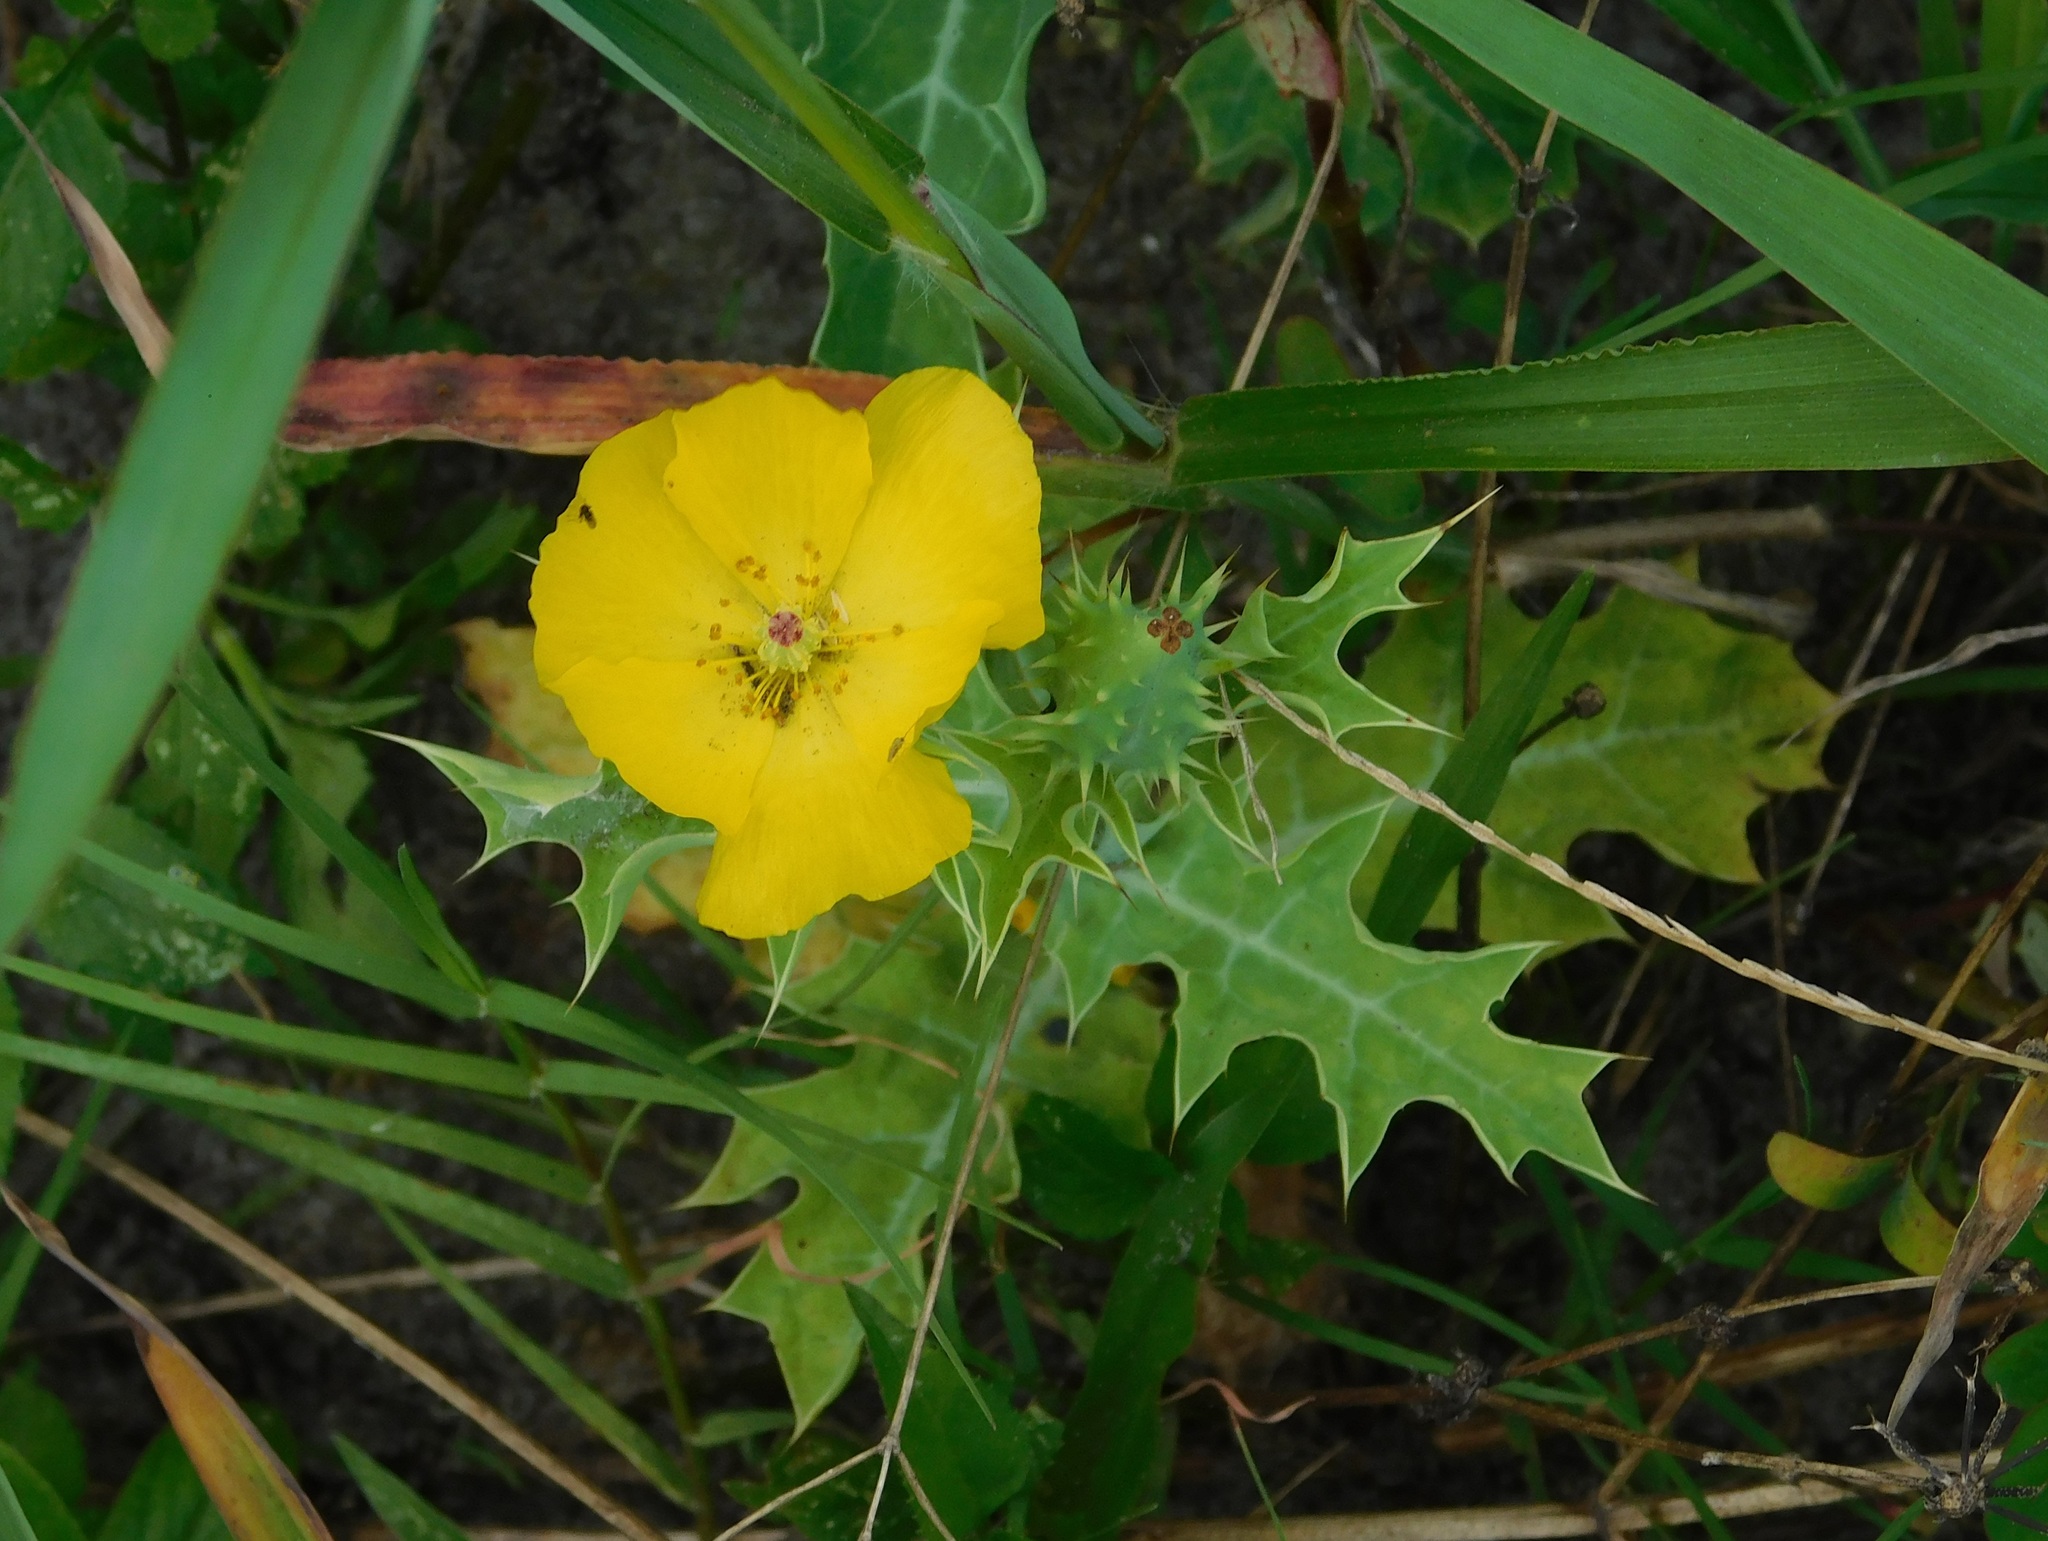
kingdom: Plantae
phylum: Tracheophyta
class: Magnoliopsida
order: Ranunculales
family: Papaveraceae
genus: Argemone
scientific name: Argemone mexicana
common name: Mexican poppy
